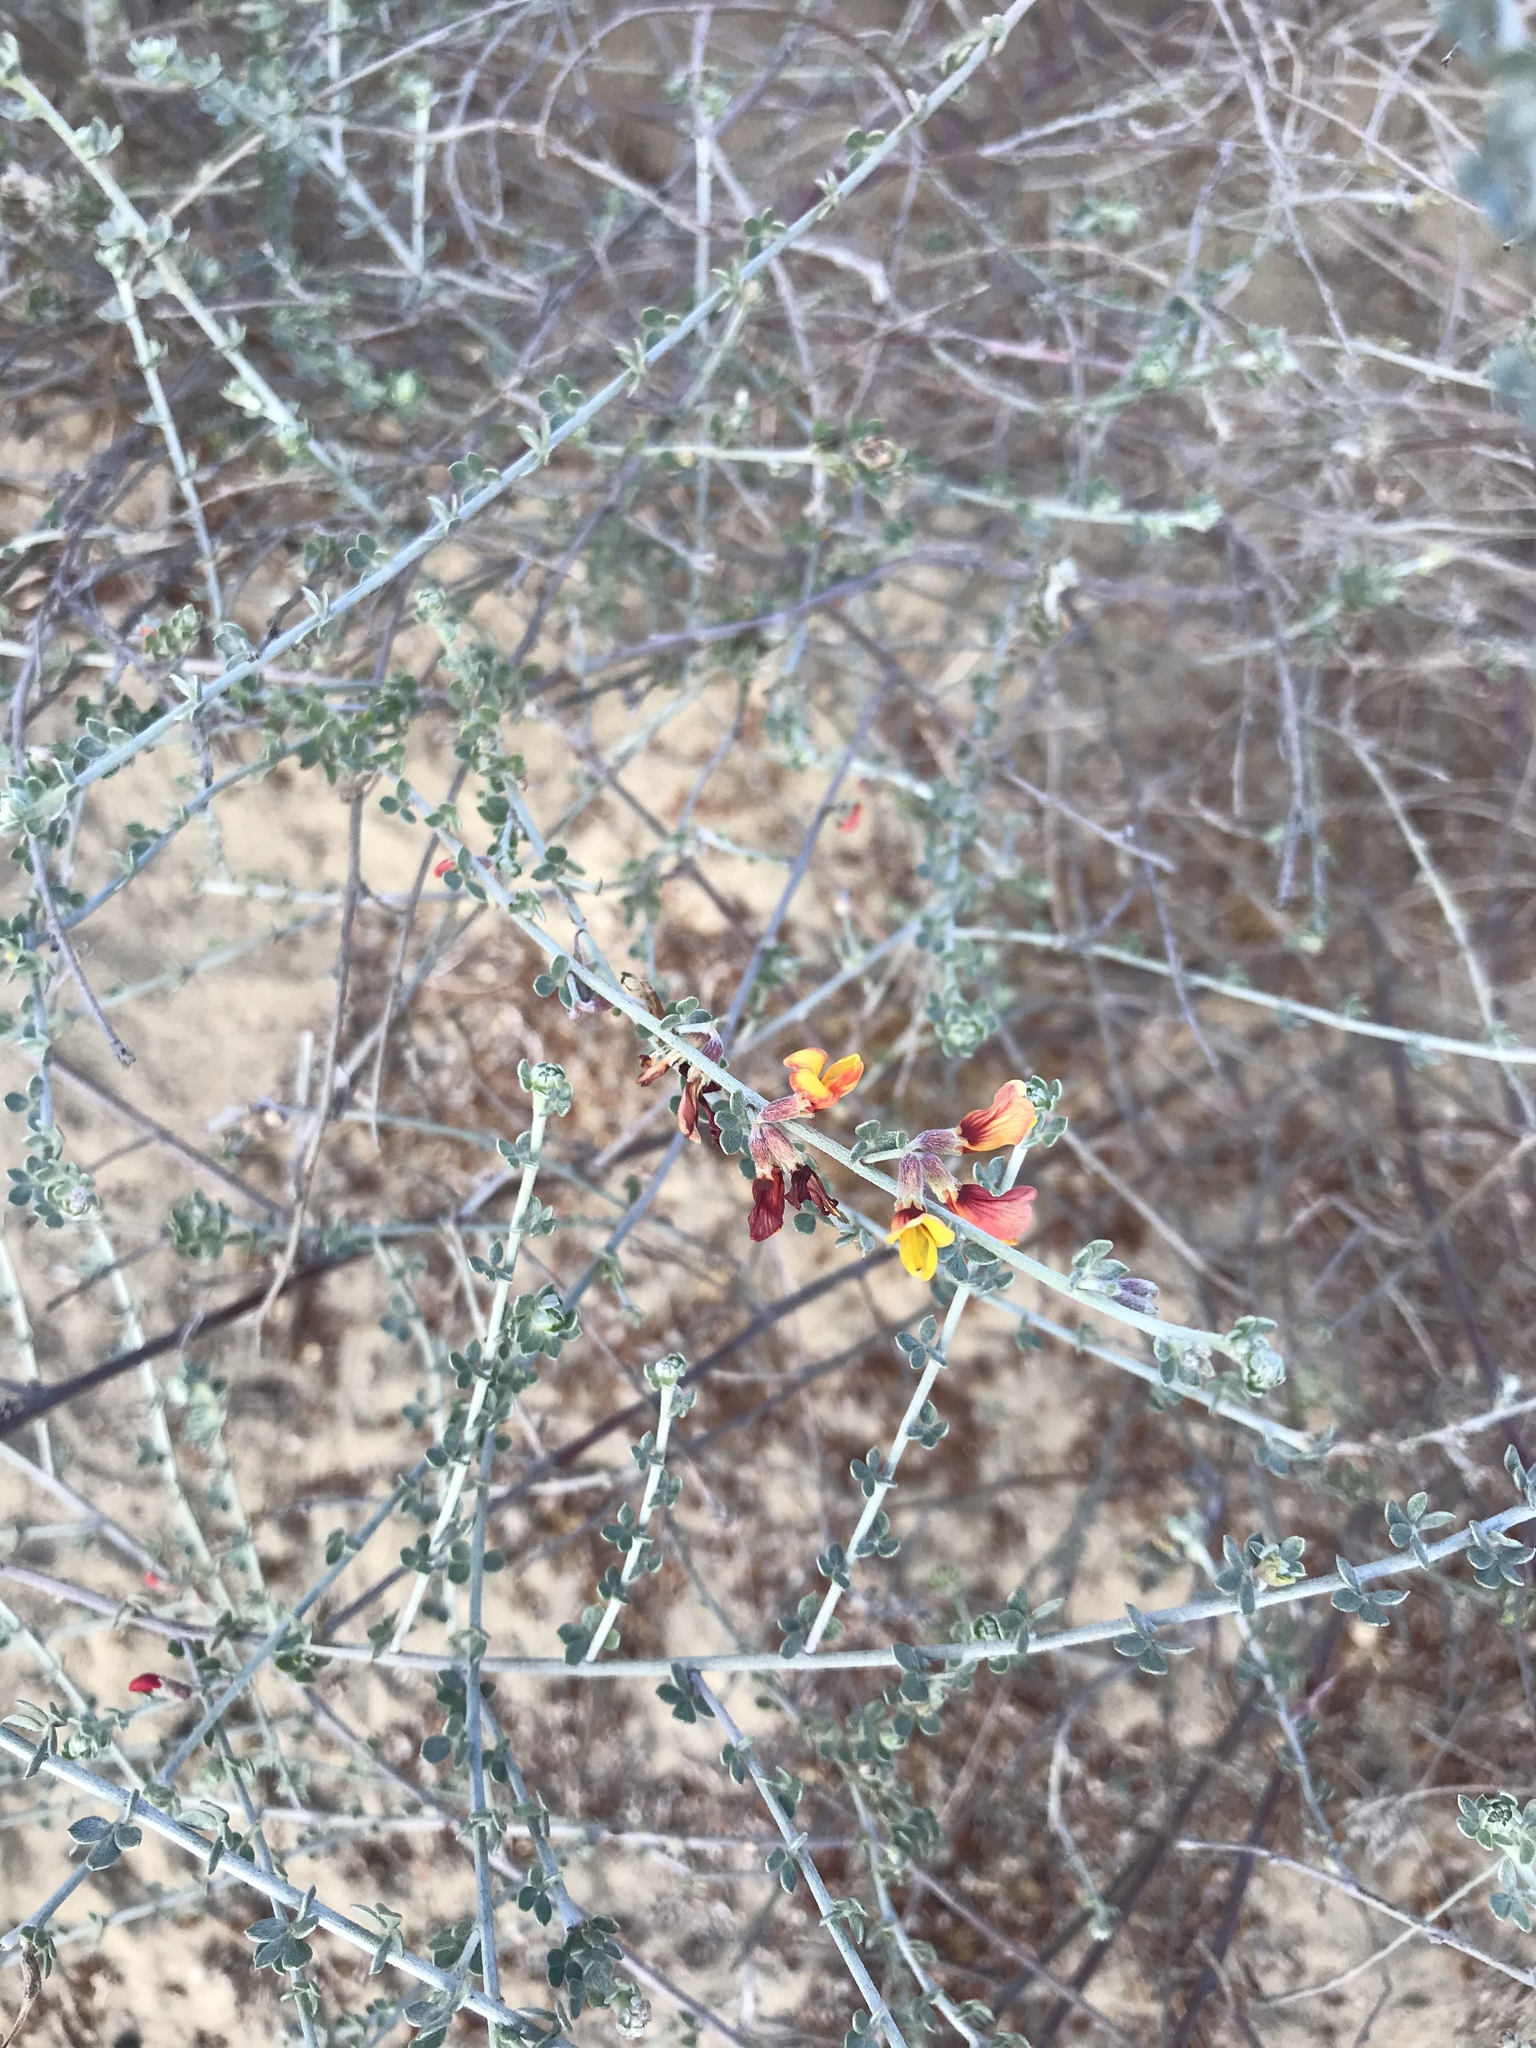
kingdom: Plantae
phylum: Tracheophyta
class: Magnoliopsida
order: Fabales
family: Fabaceae
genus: Acmispon
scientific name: Acmispon distichus
